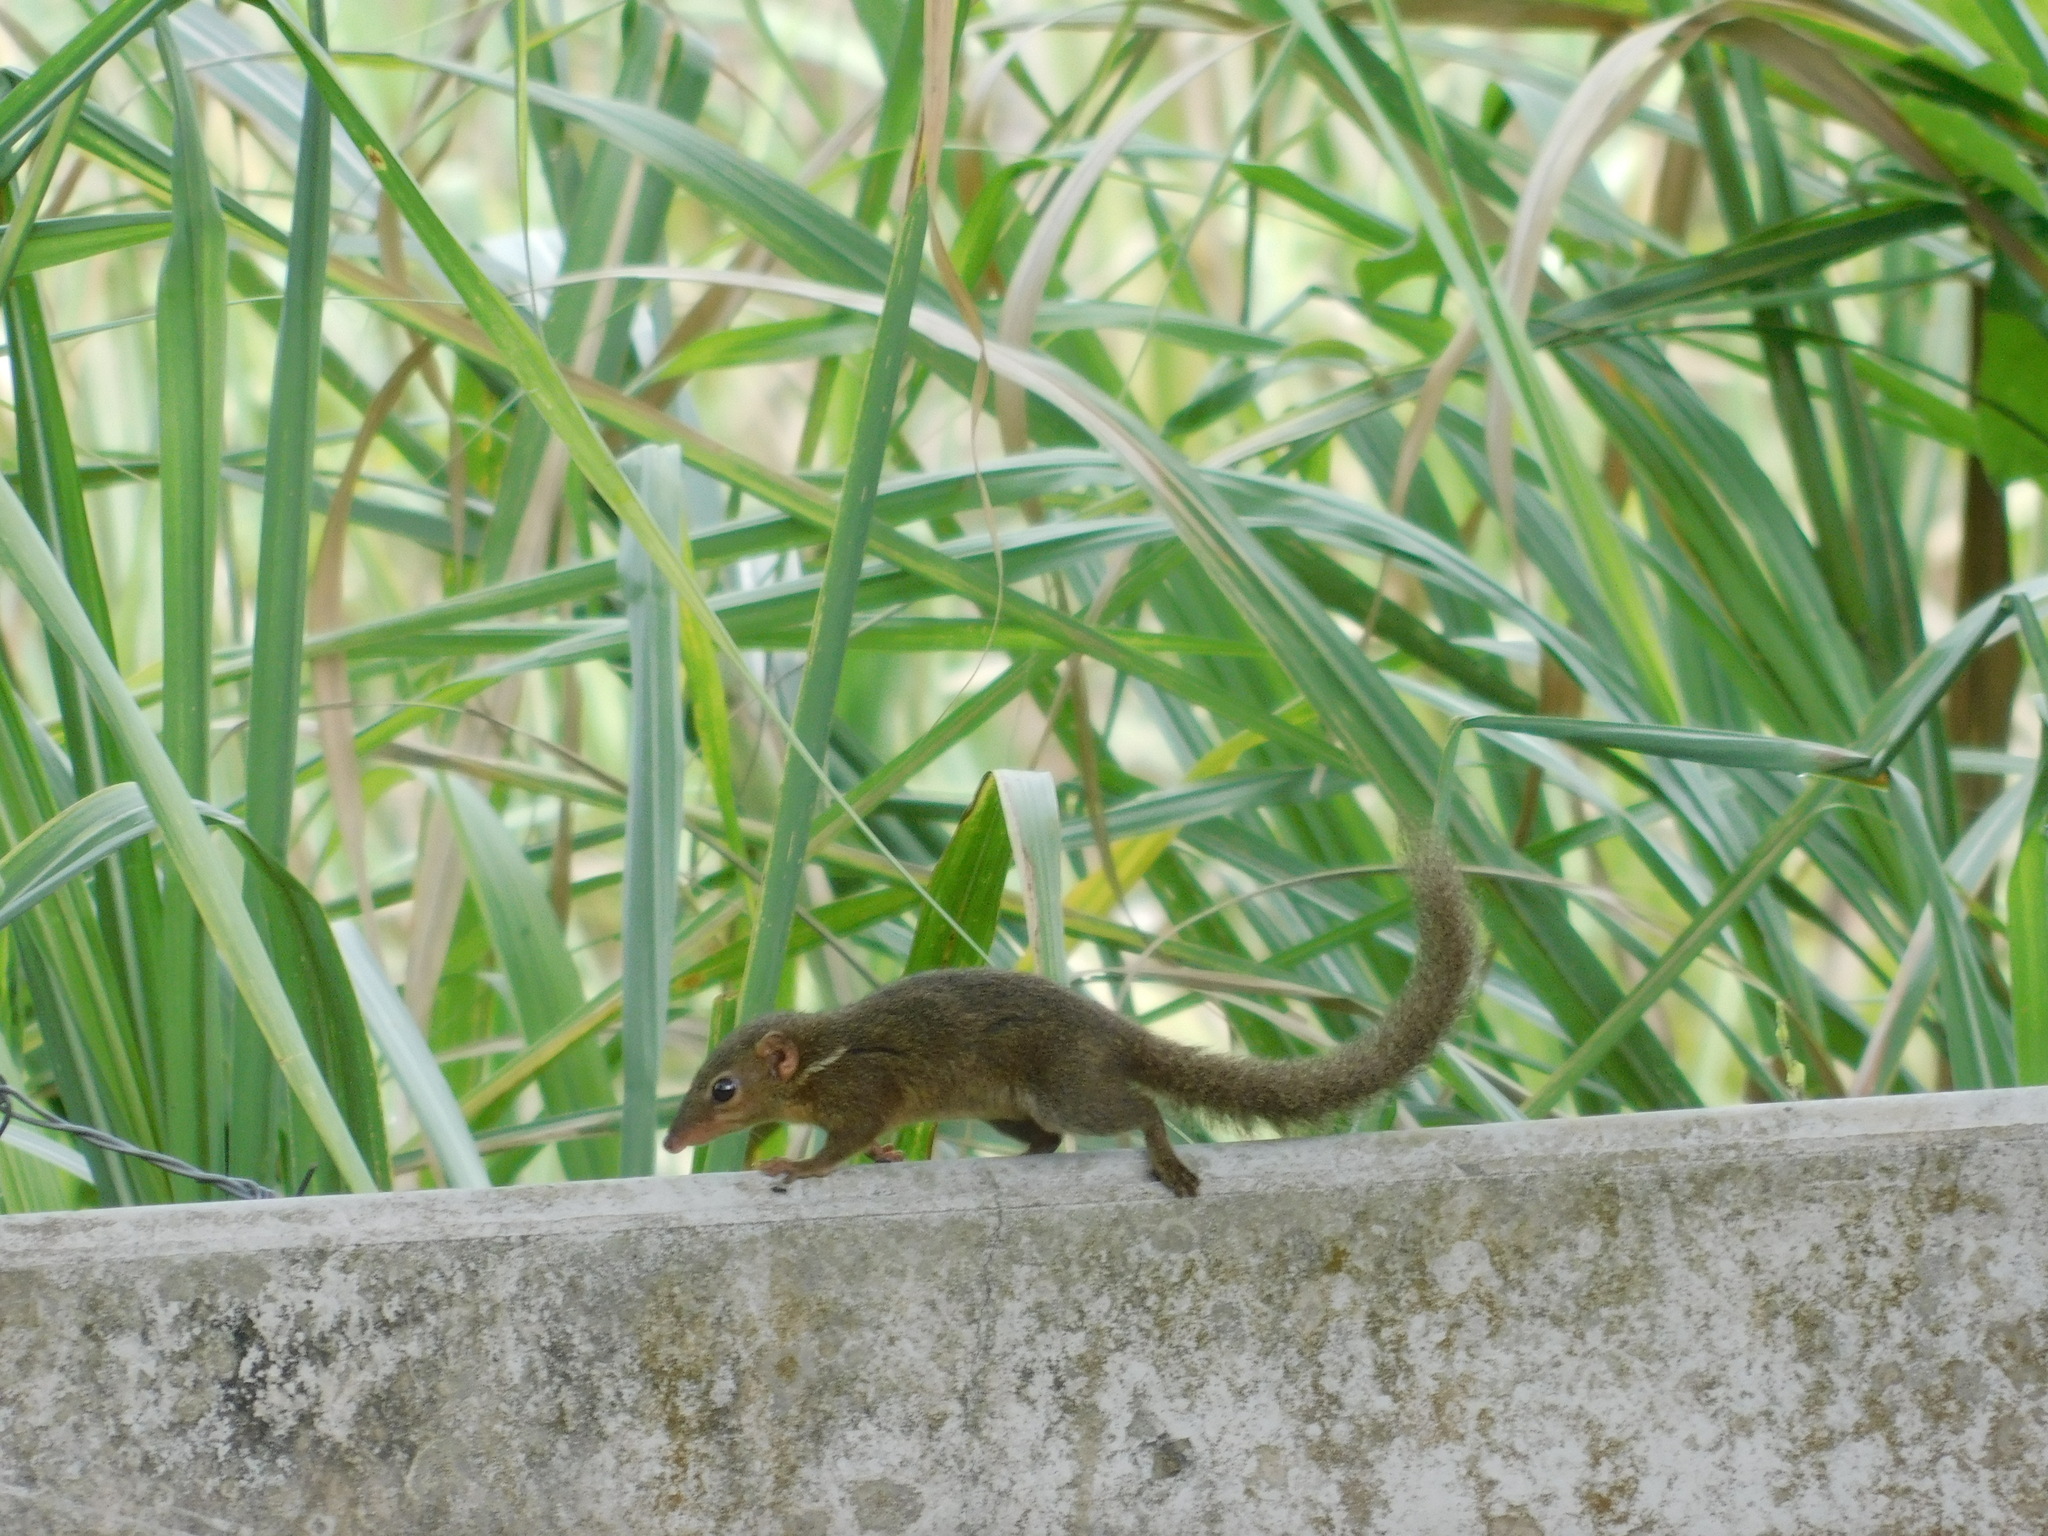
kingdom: Animalia
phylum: Chordata
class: Mammalia
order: Scandentia
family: Tupaiidae
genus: Tupaia
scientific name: Tupaia javanica
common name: Horsfield's treeshrew
